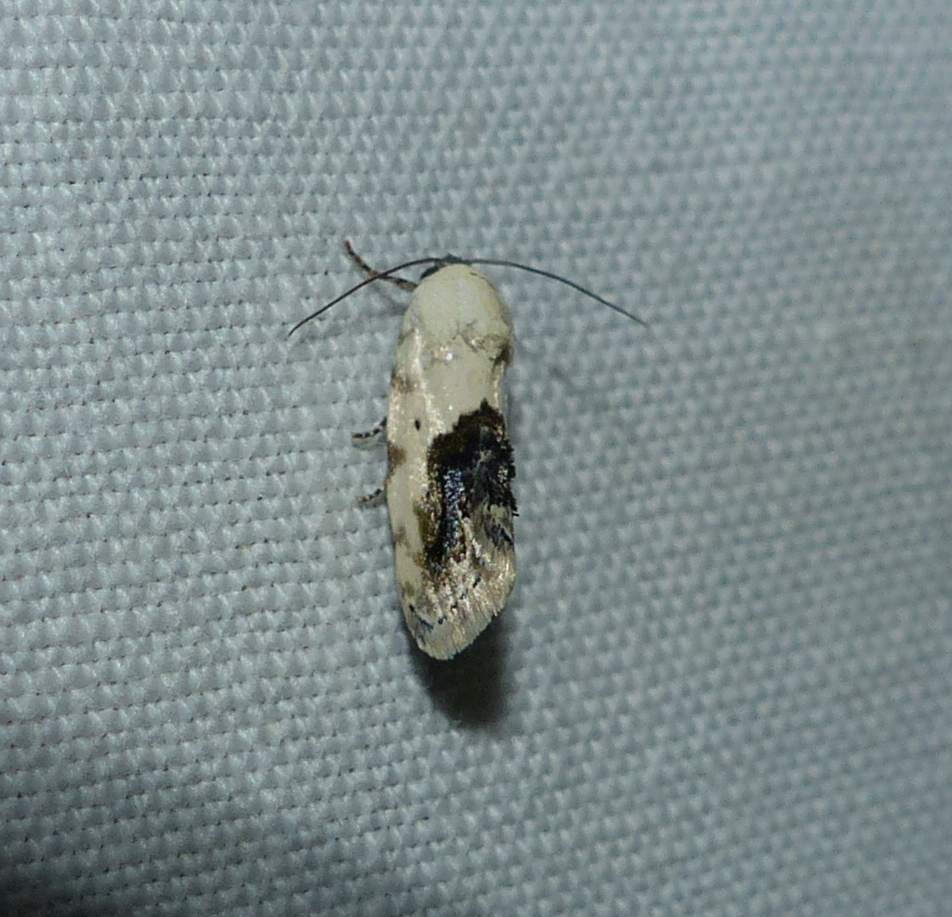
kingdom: Animalia
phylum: Arthropoda
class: Insecta
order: Lepidoptera
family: Noctuidae
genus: Acontia
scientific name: Acontia erastrioides
